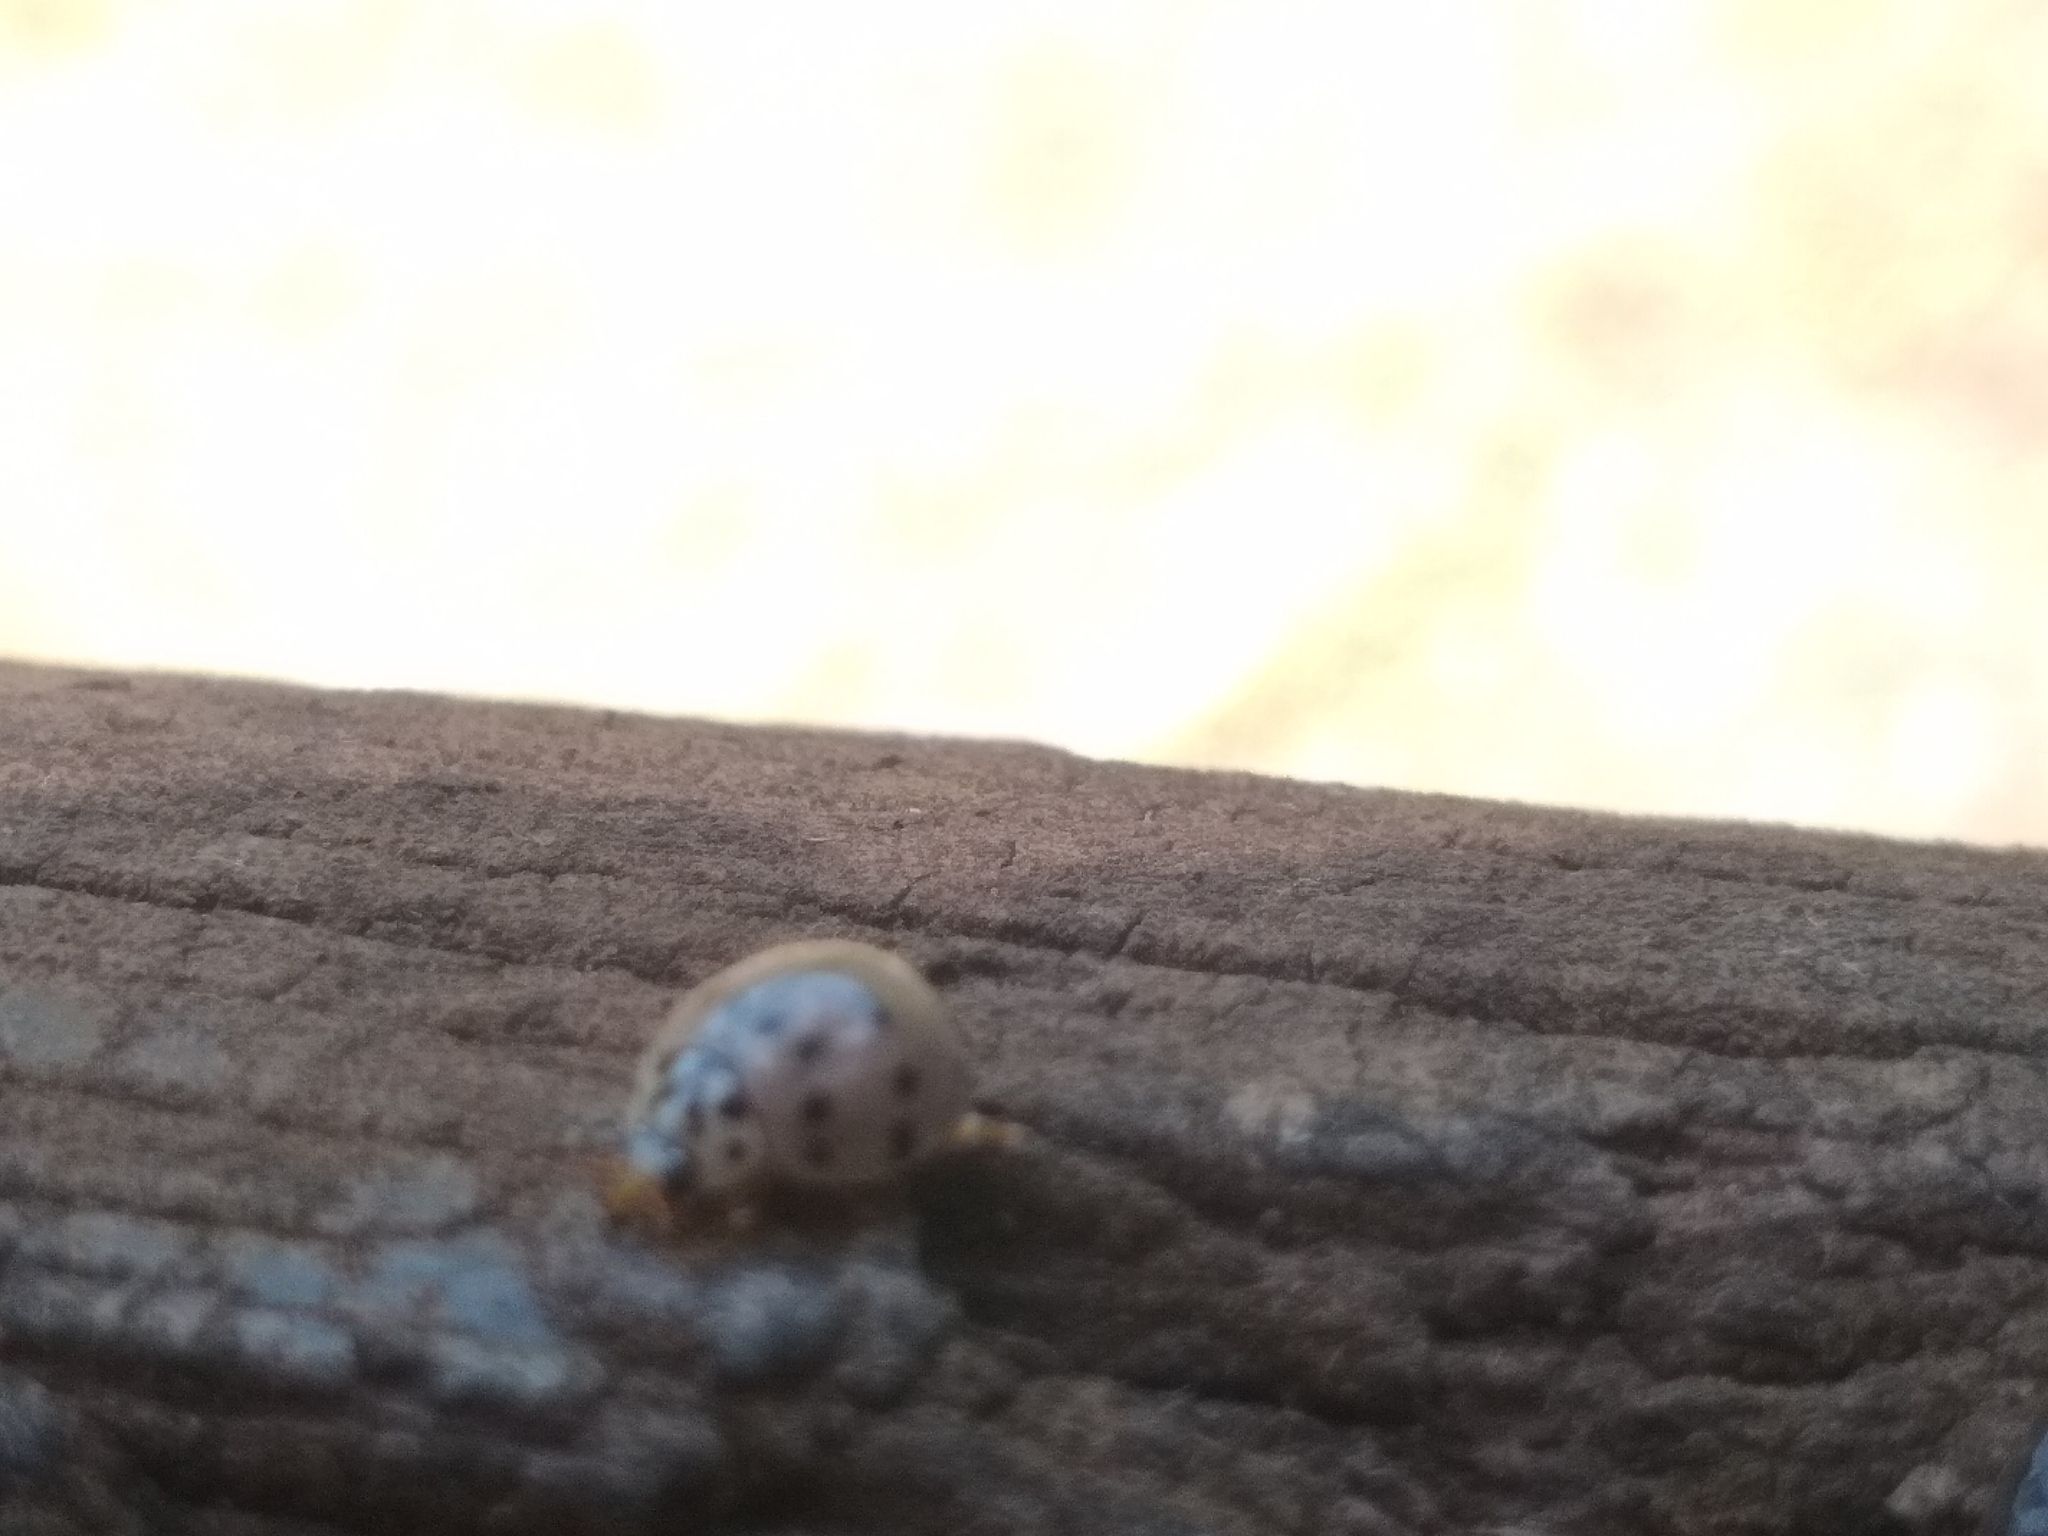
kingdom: Animalia
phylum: Arthropoda
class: Insecta
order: Coleoptera
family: Coccinellidae
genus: Olla
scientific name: Olla v-nigrum
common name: Ashy gray lady beetle
